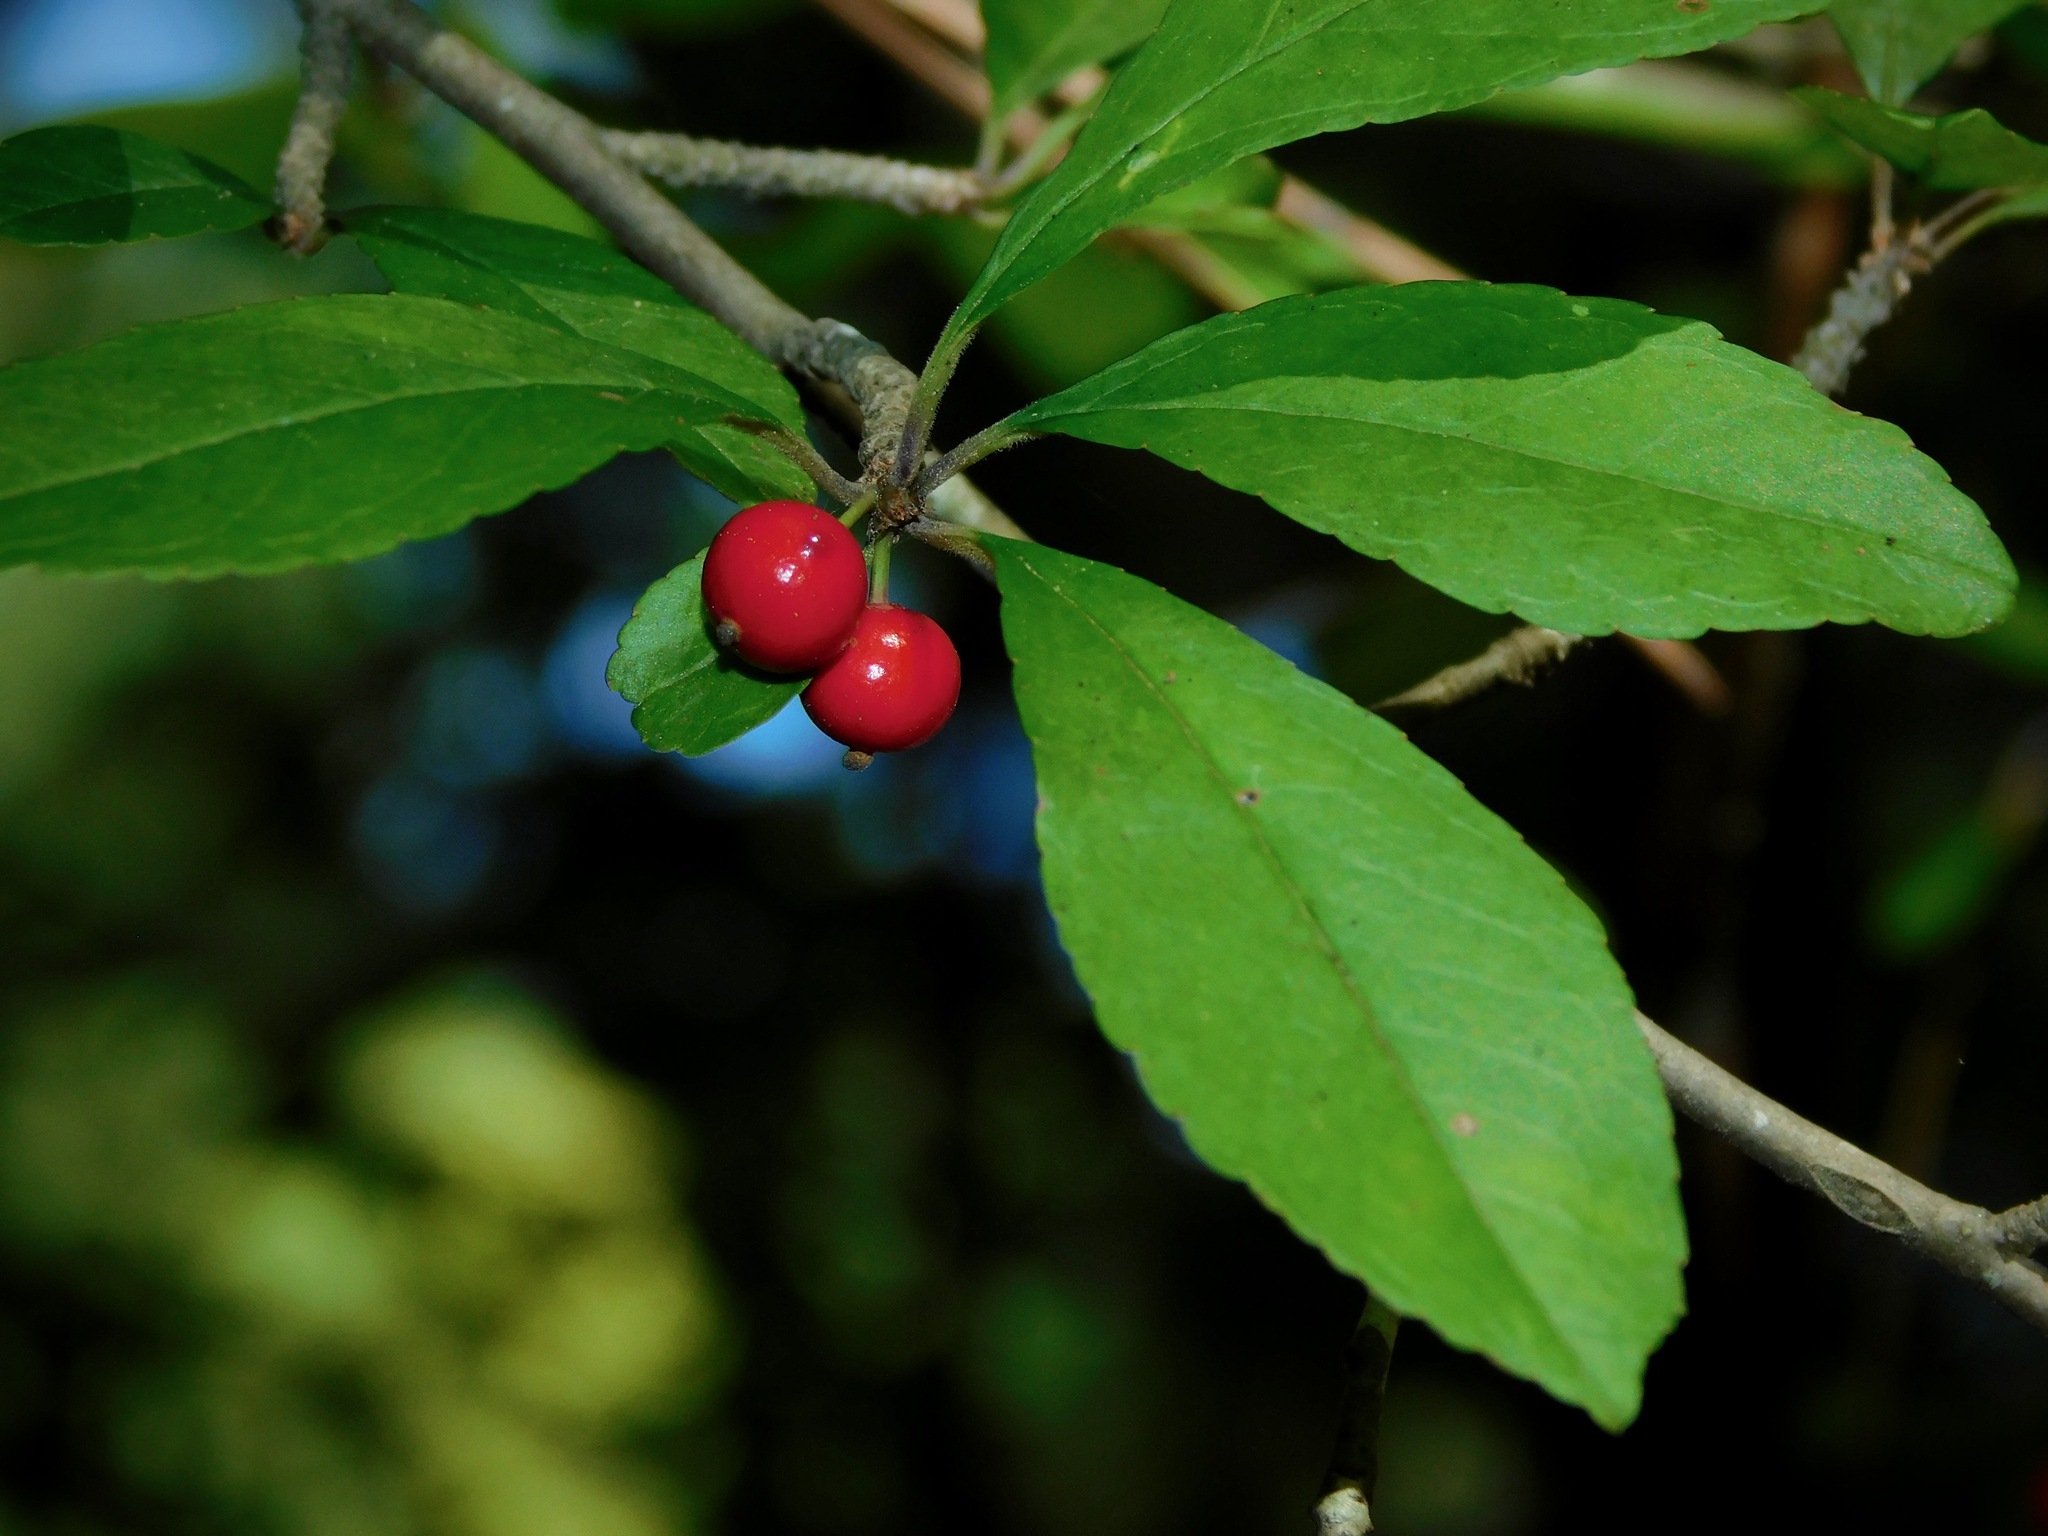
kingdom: Plantae
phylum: Tracheophyta
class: Magnoliopsida
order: Aquifoliales
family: Aquifoliaceae
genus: Ilex
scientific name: Ilex decidua
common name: Possum-haw
